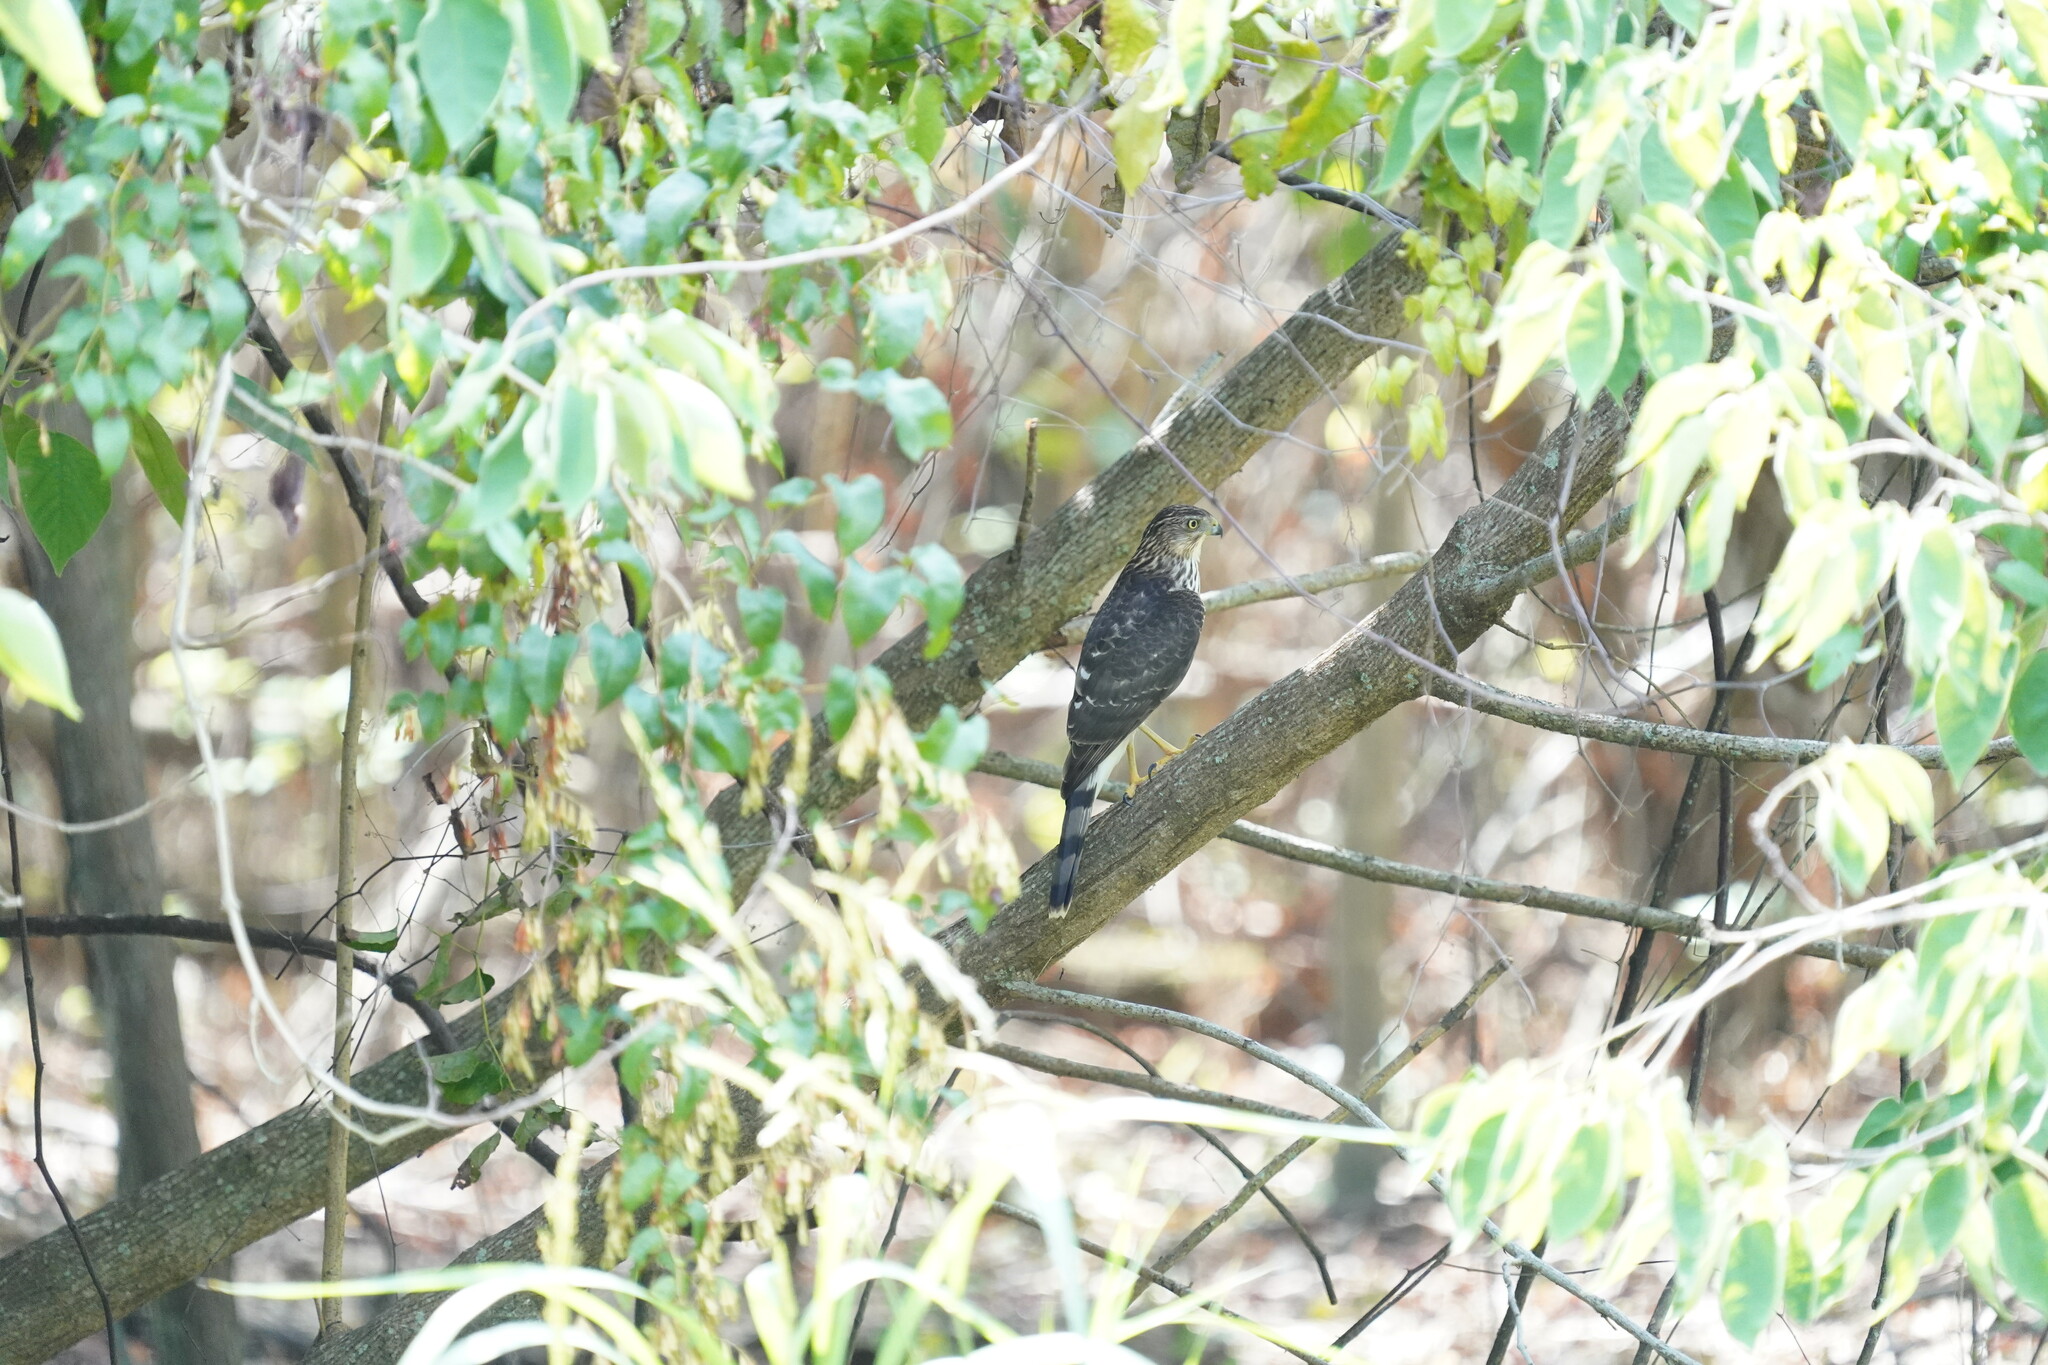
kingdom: Animalia
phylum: Chordata
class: Aves
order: Accipitriformes
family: Accipitridae
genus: Accipiter
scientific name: Accipiter cooperii
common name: Cooper's hawk
